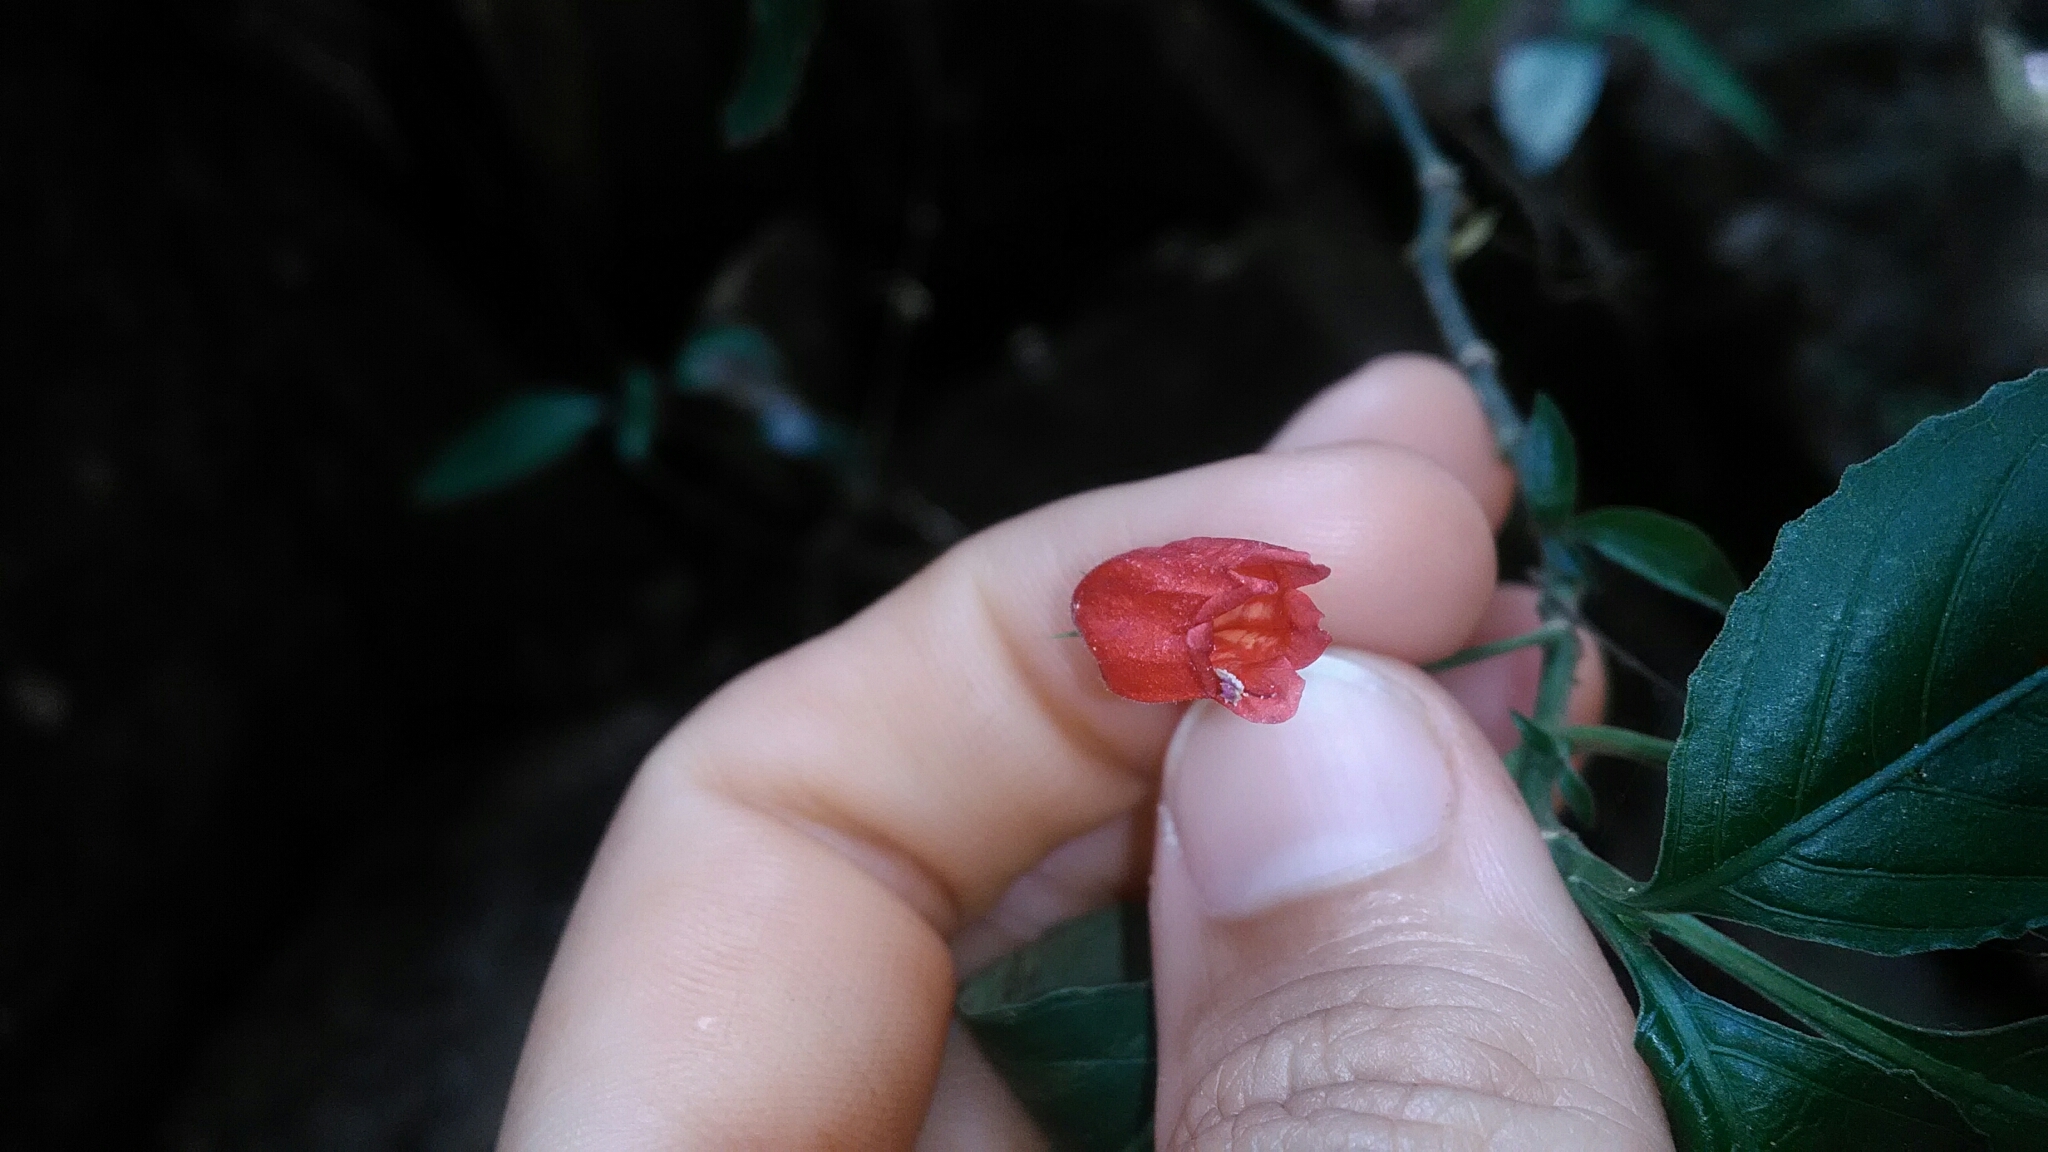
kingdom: Plantae
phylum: Tracheophyta
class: Magnoliopsida
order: Lamiales
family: Acanthaceae
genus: Ruellia
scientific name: Ruellia brevifolia
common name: Tropical wild petunia
